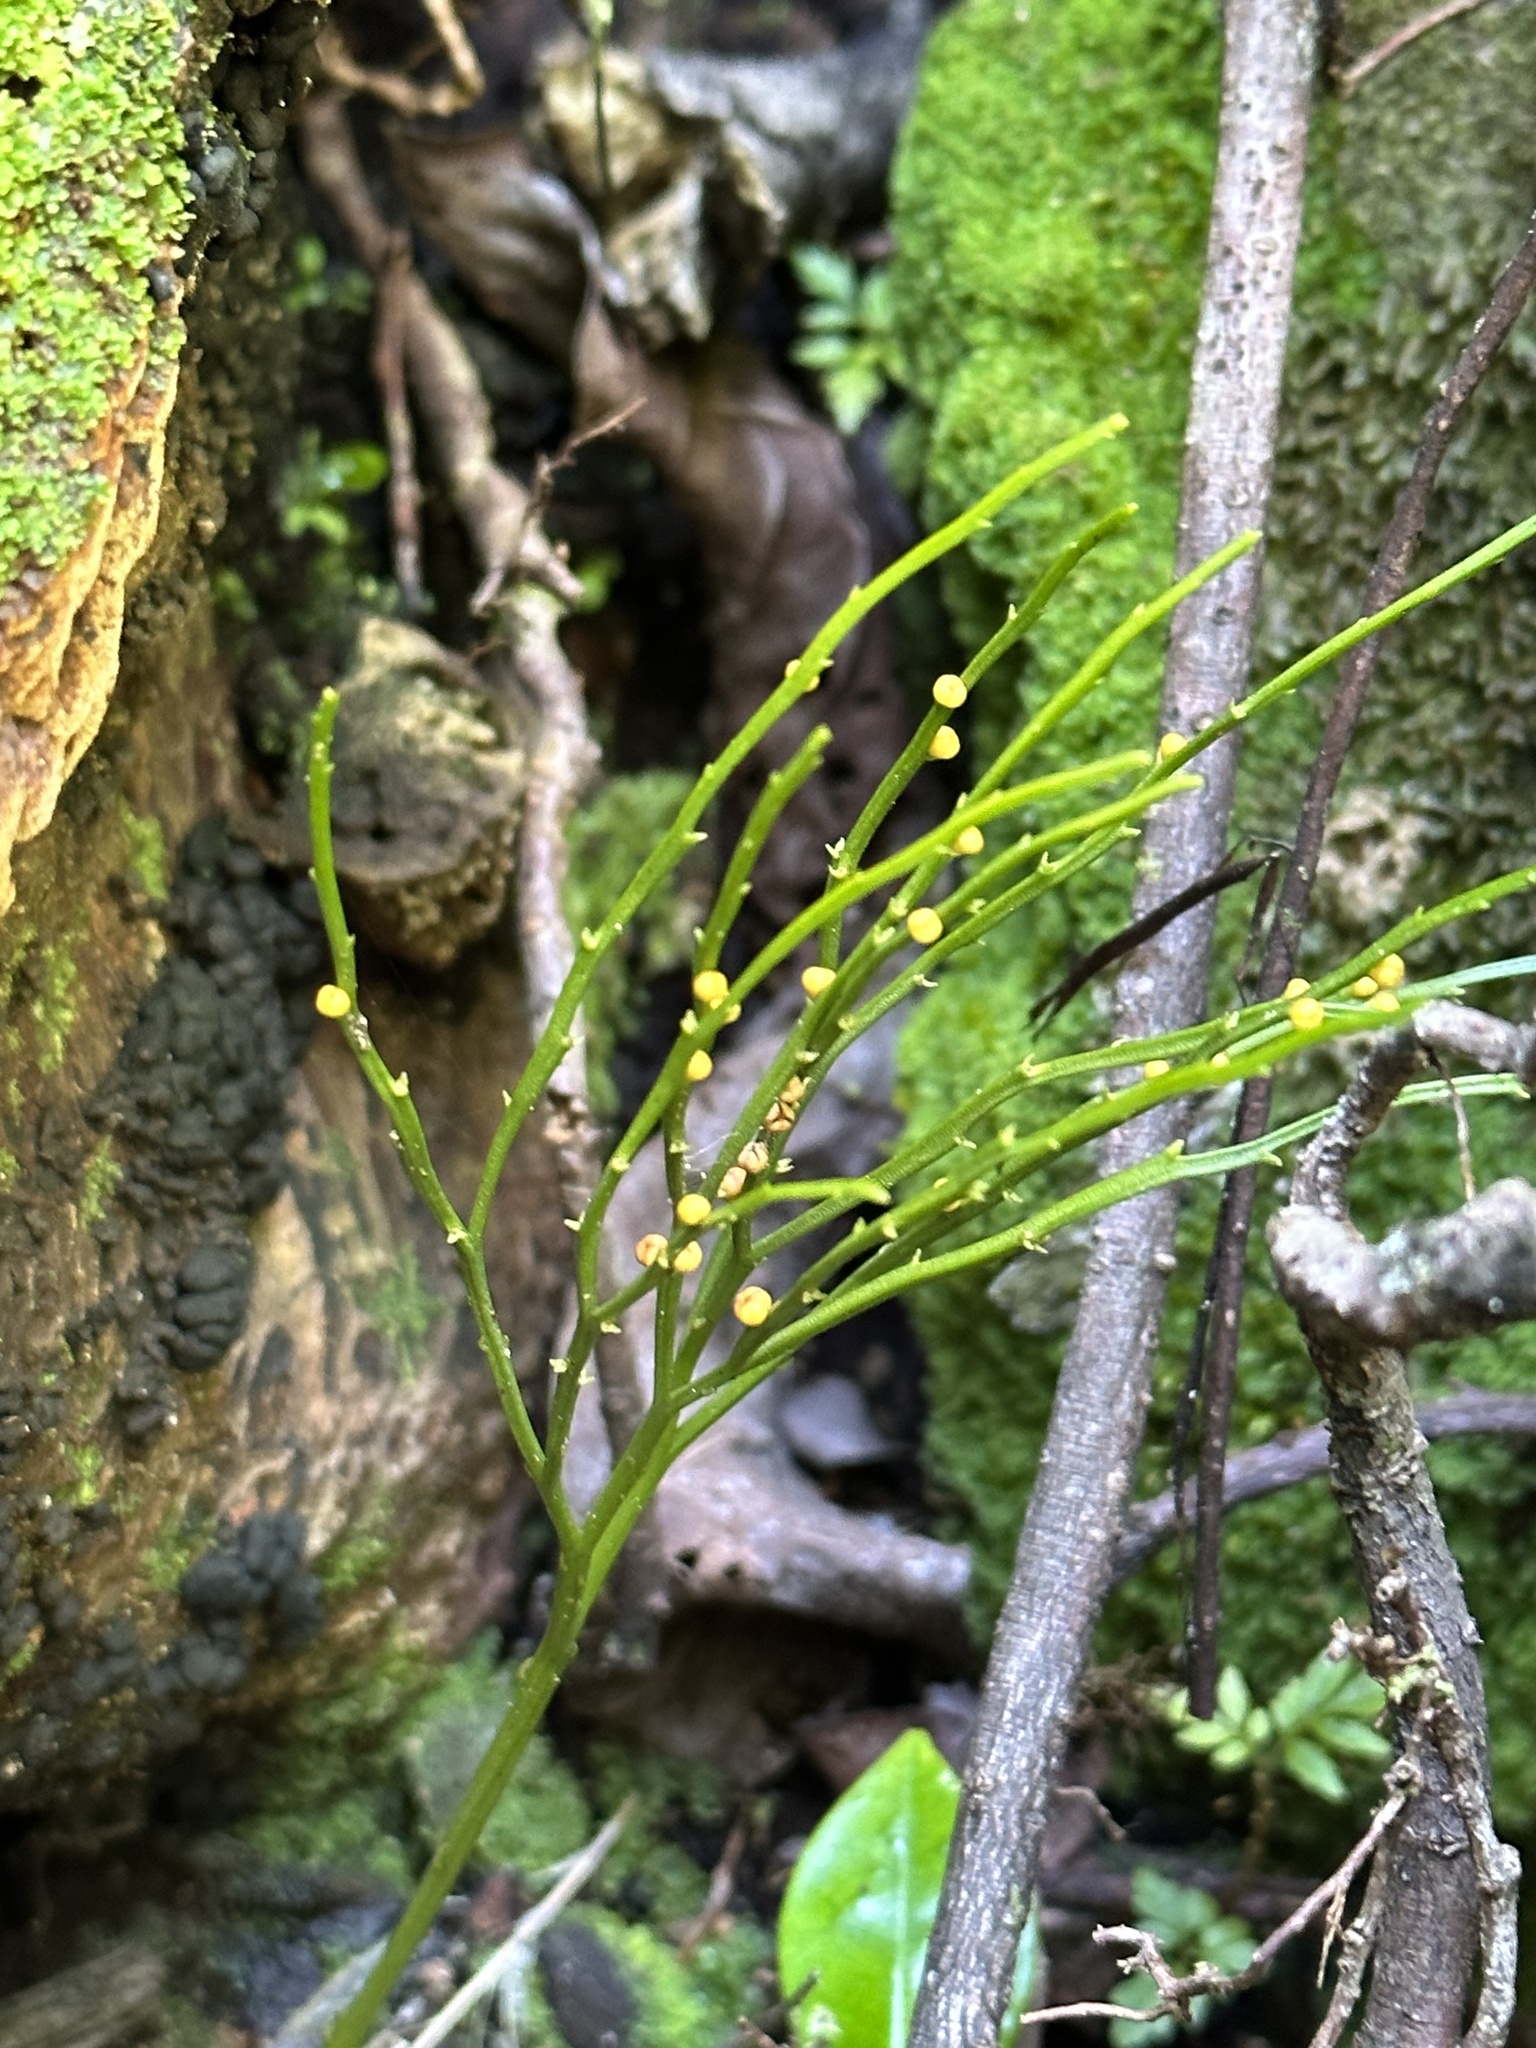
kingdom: Plantae
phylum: Tracheophyta
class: Polypodiopsida
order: Psilotales
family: Psilotaceae
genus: Psilotum
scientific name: Psilotum nudum
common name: Skeleton fork fern
